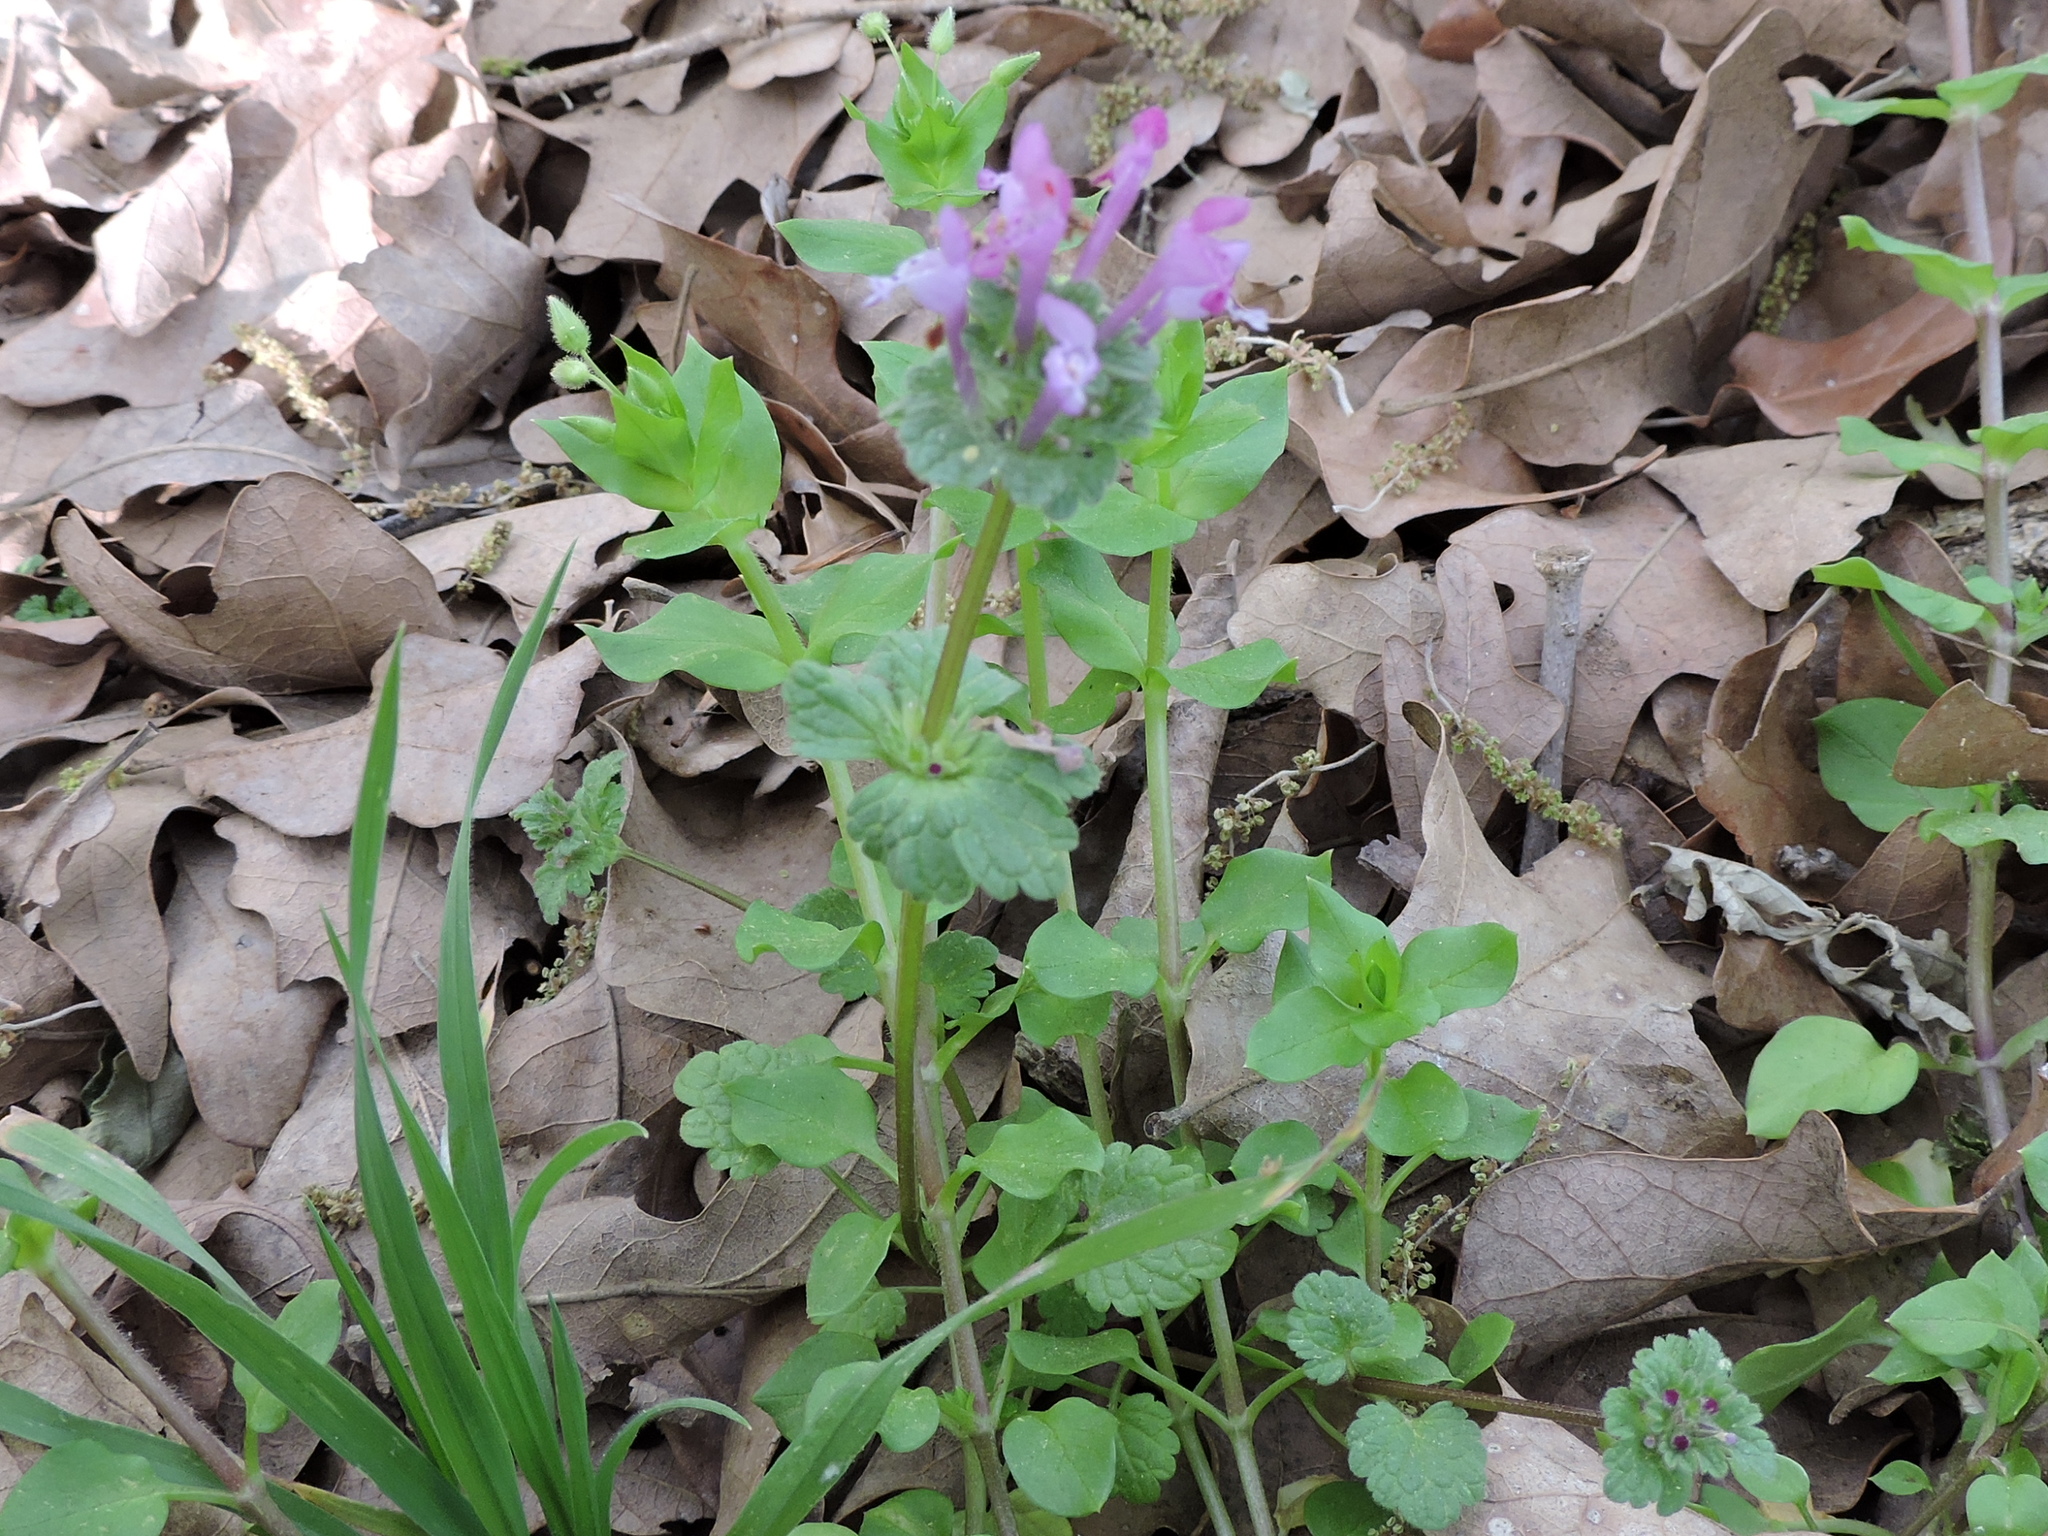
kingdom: Plantae
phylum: Tracheophyta
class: Magnoliopsida
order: Lamiales
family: Lamiaceae
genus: Lamium
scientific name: Lamium amplexicaule
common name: Henbit dead-nettle
